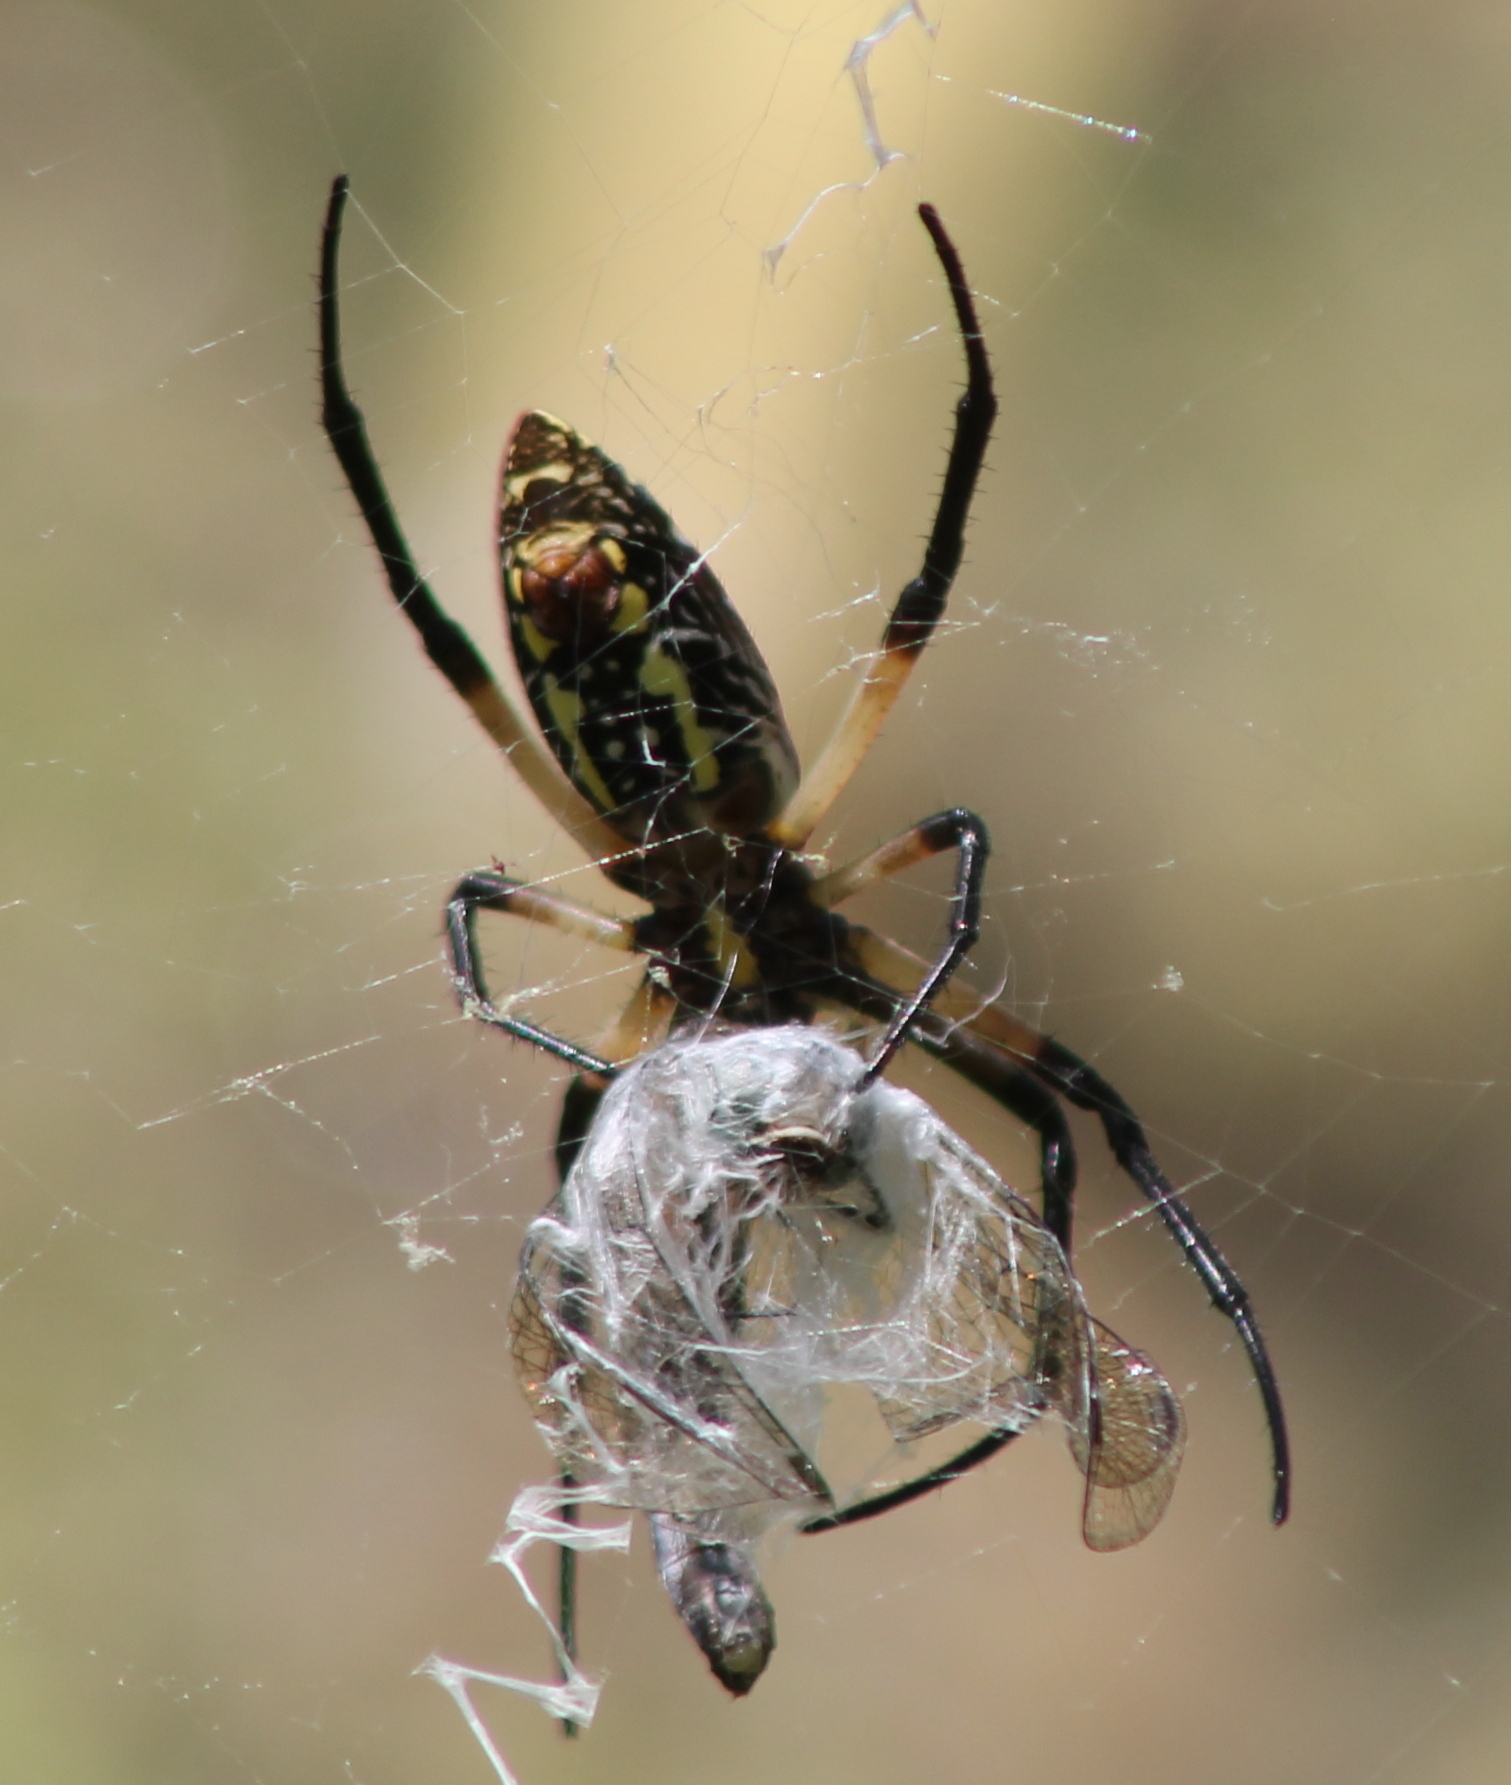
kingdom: Animalia
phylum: Arthropoda
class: Arachnida
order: Araneae
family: Araneidae
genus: Argiope
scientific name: Argiope aurantia
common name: Orb weavers
